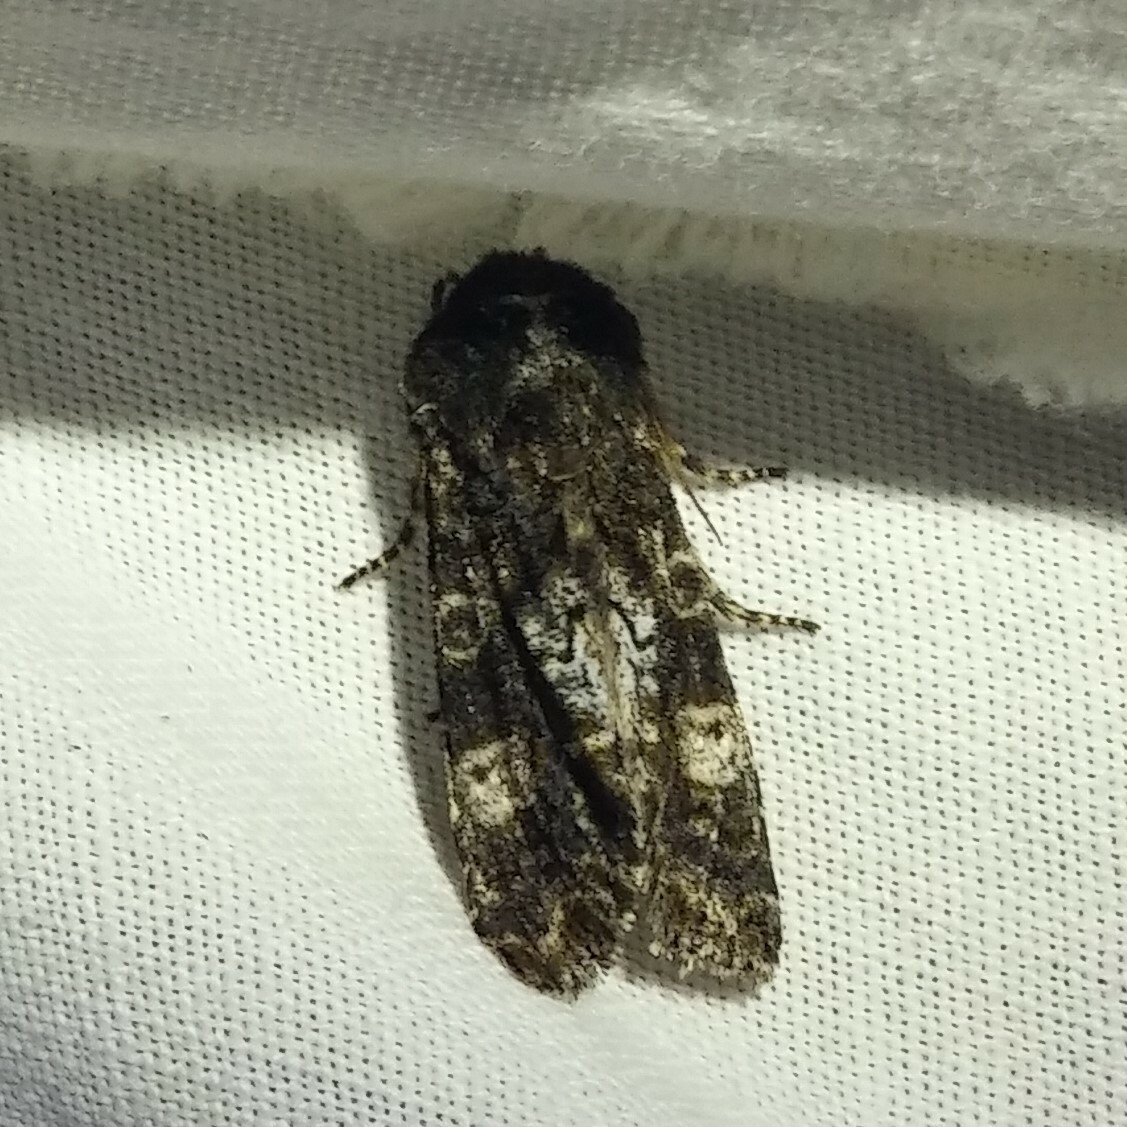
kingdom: Animalia
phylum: Arthropoda
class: Insecta
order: Lepidoptera
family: Noctuidae
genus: Psaphida
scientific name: Psaphida grotei
